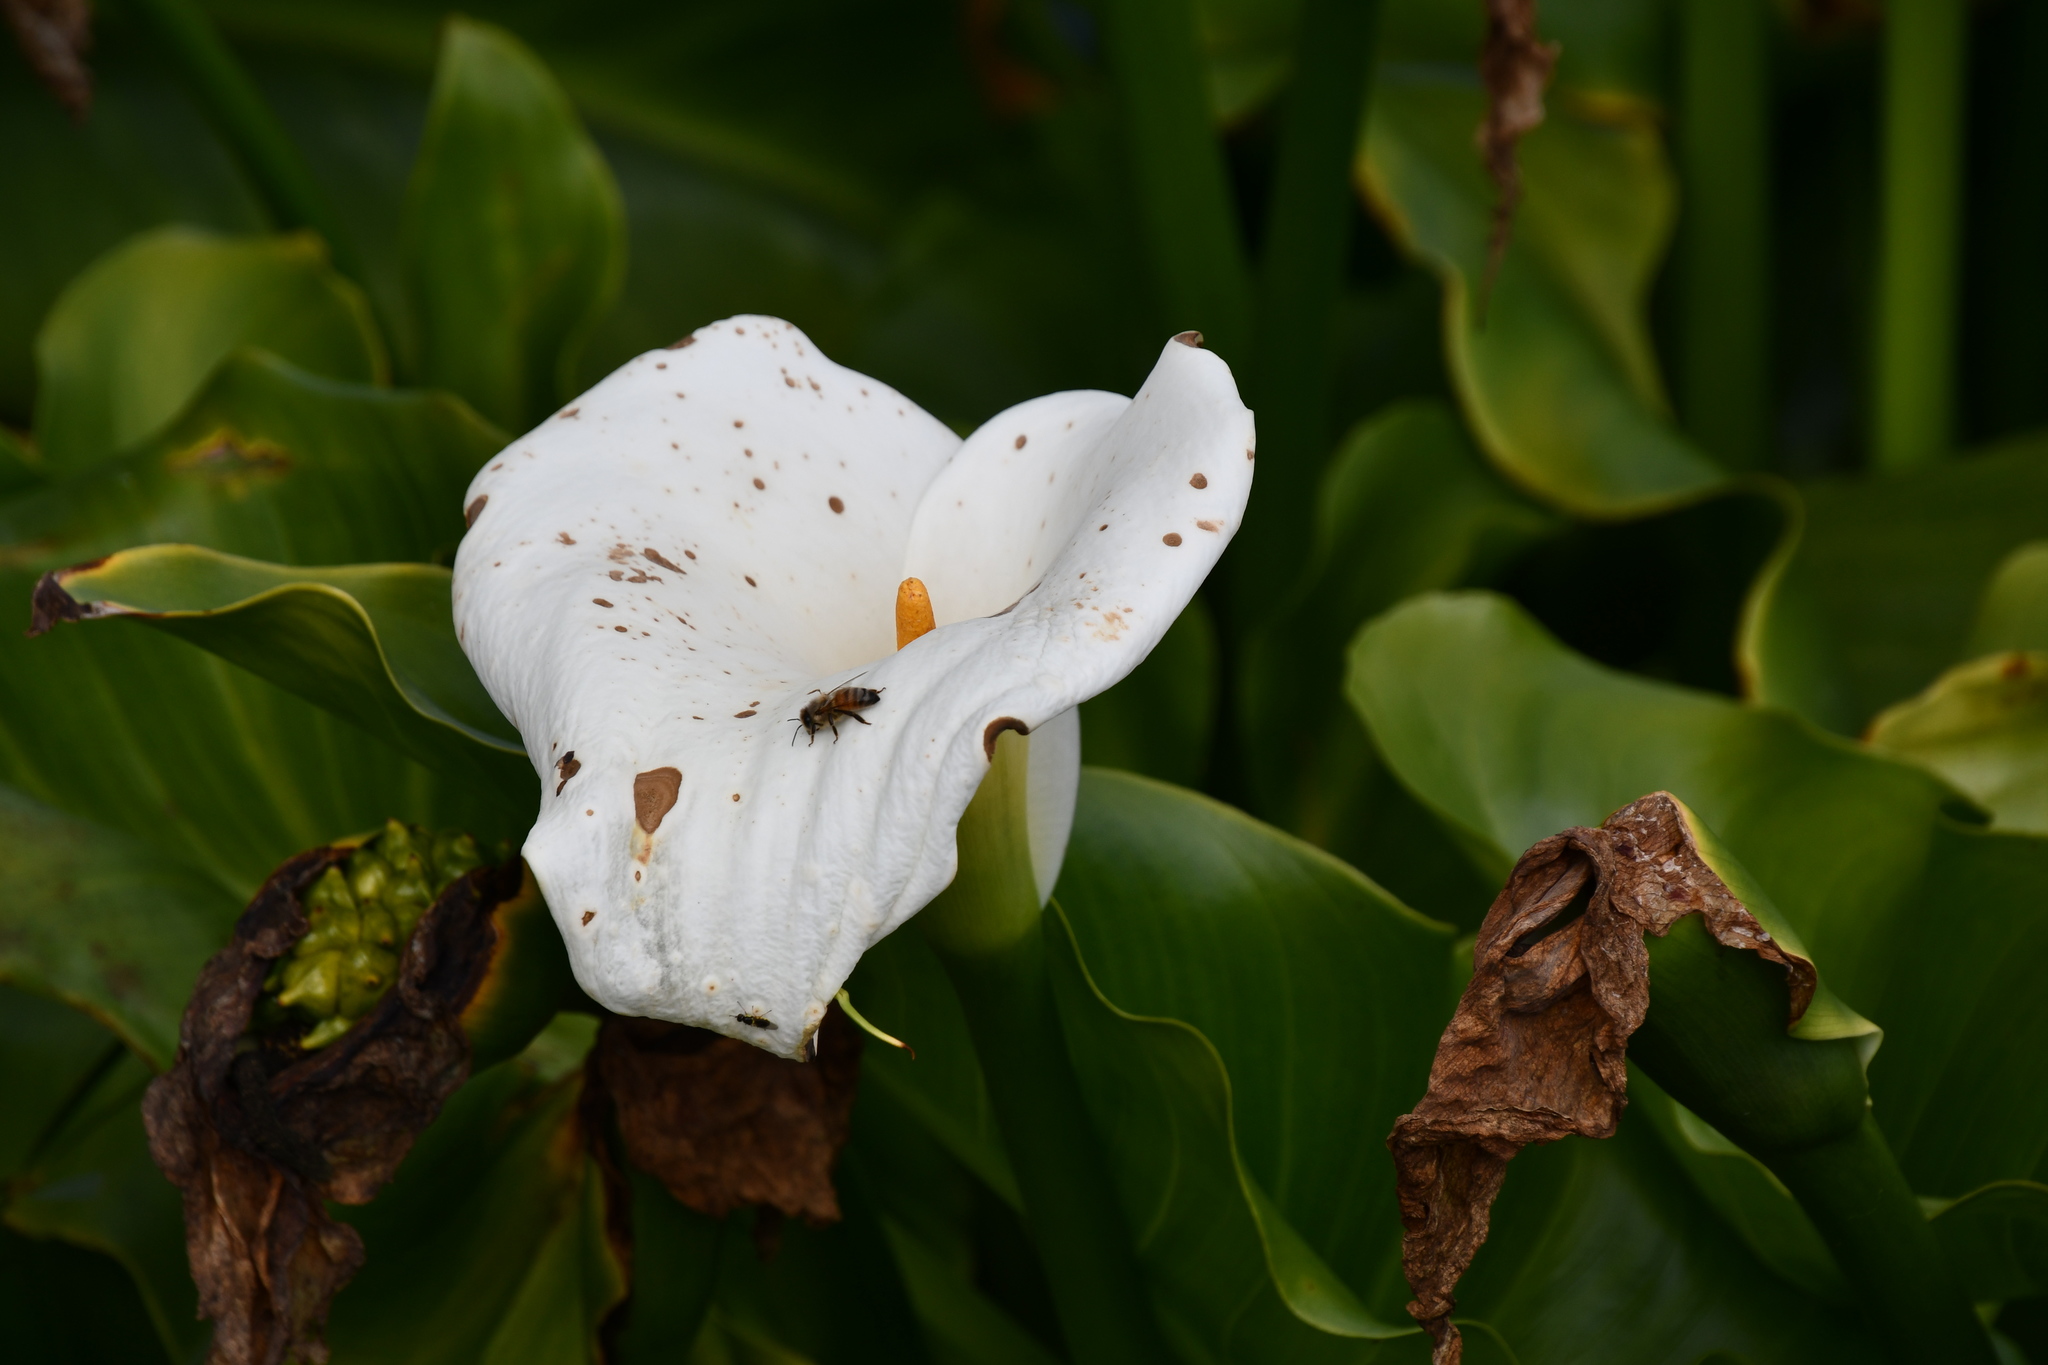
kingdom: Animalia
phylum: Arthropoda
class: Insecta
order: Hymenoptera
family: Apidae
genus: Apis
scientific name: Apis mellifera
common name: Honey bee
